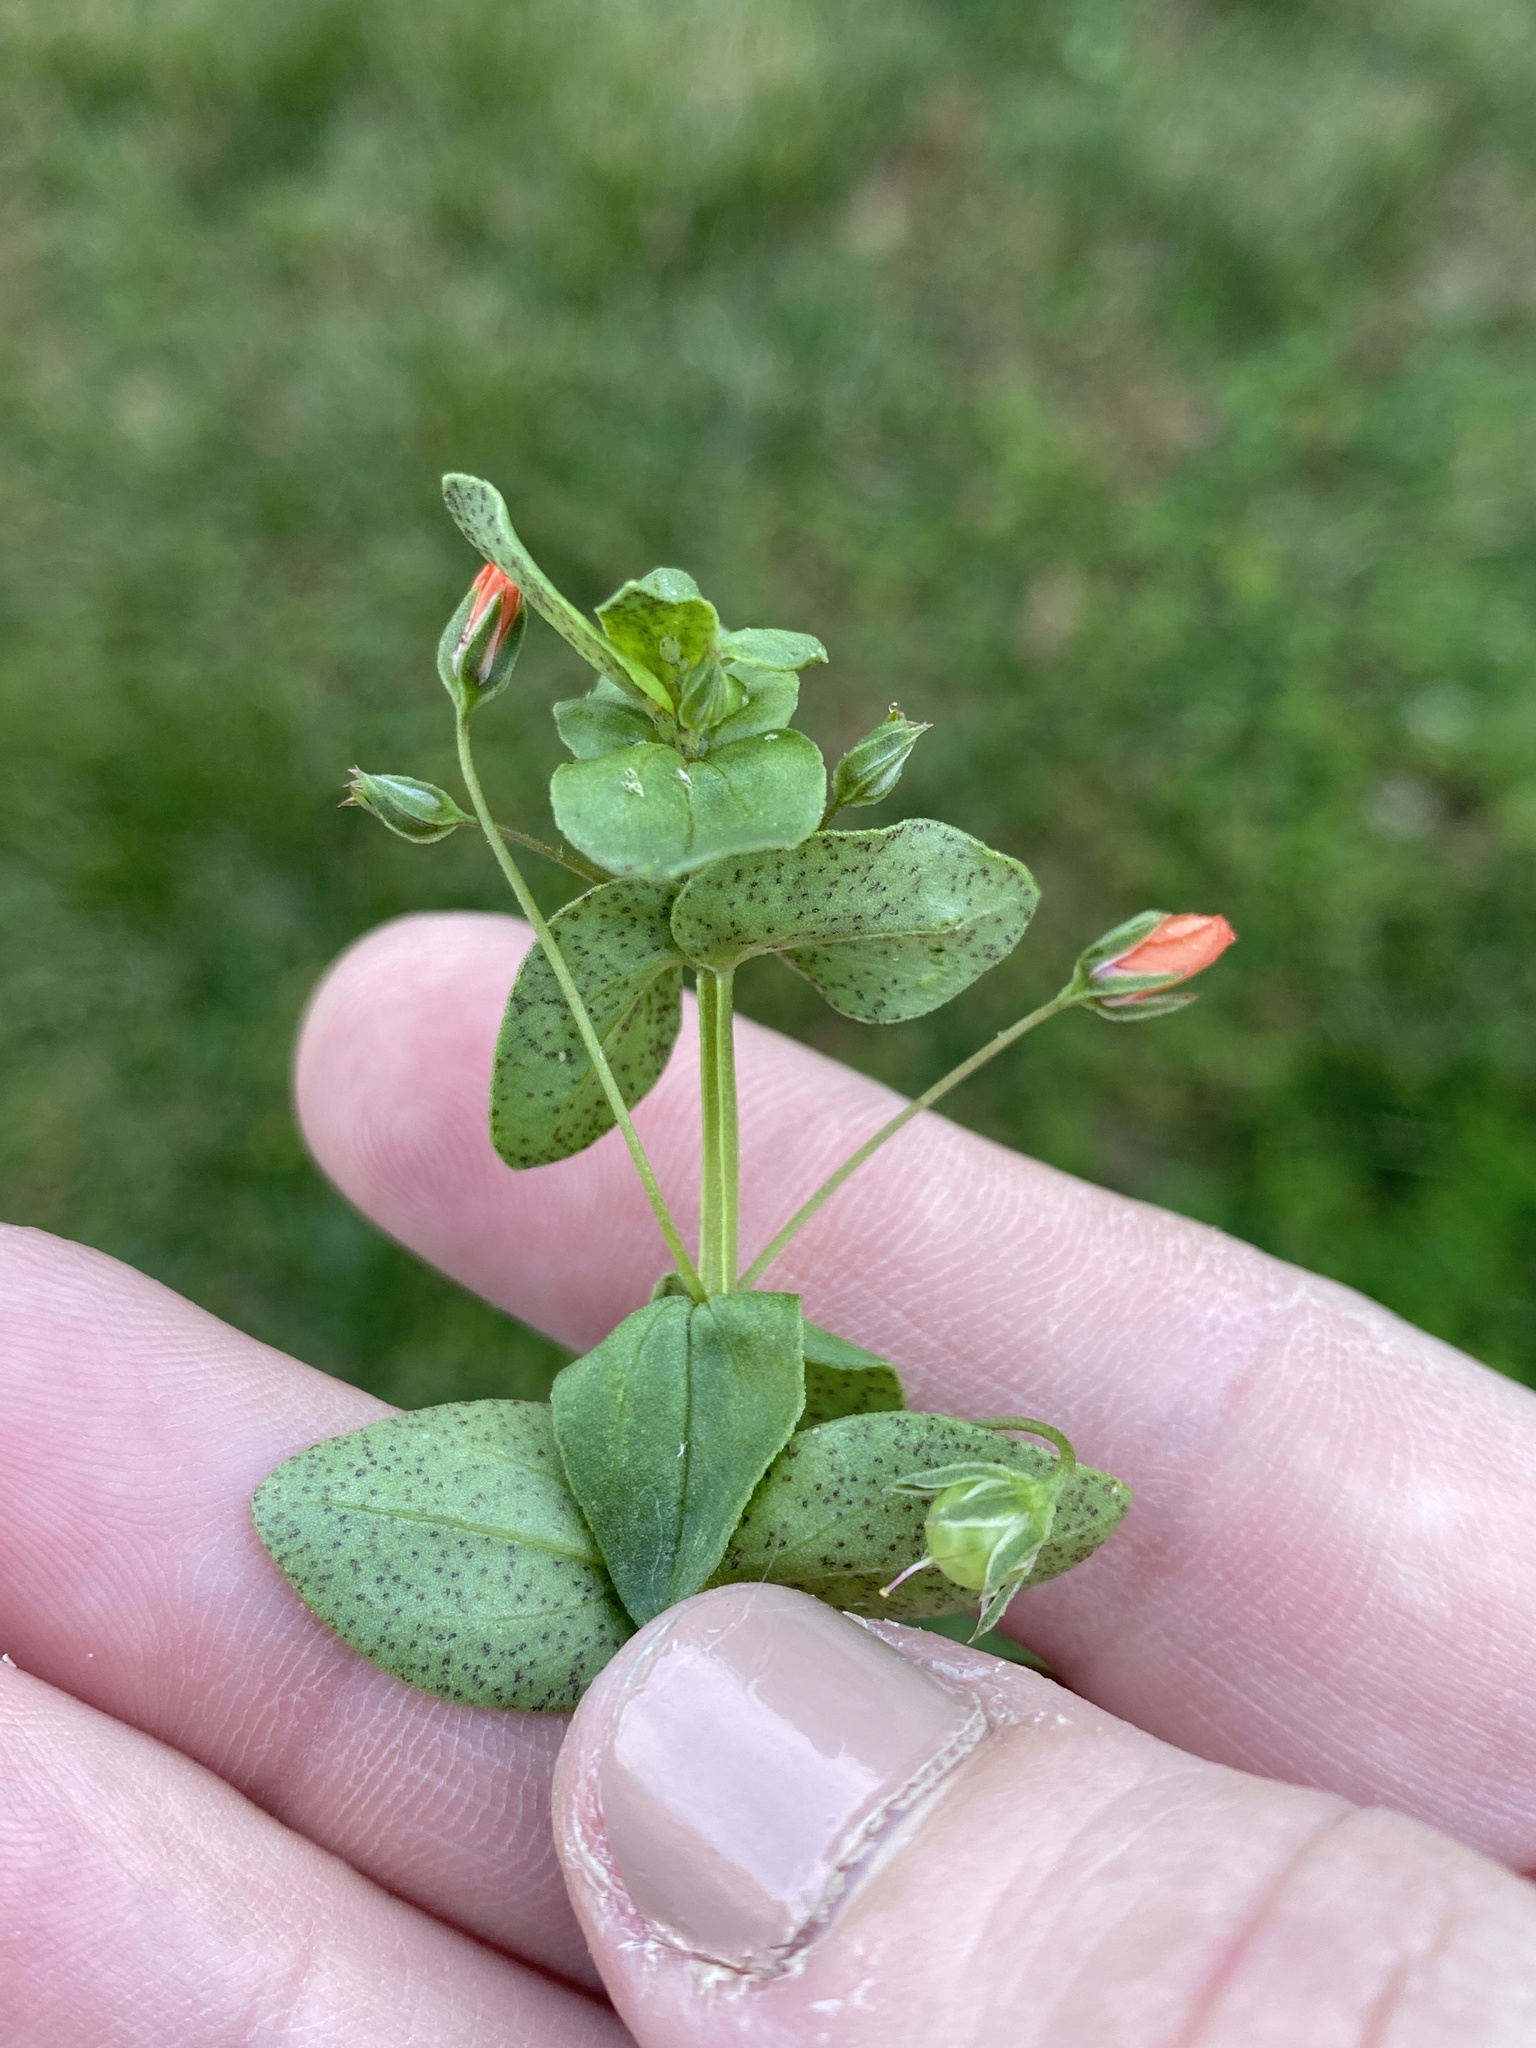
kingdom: Plantae
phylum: Tracheophyta
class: Magnoliopsida
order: Ericales
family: Primulaceae
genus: Lysimachia
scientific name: Lysimachia arvensis
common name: Scarlet pimpernel
